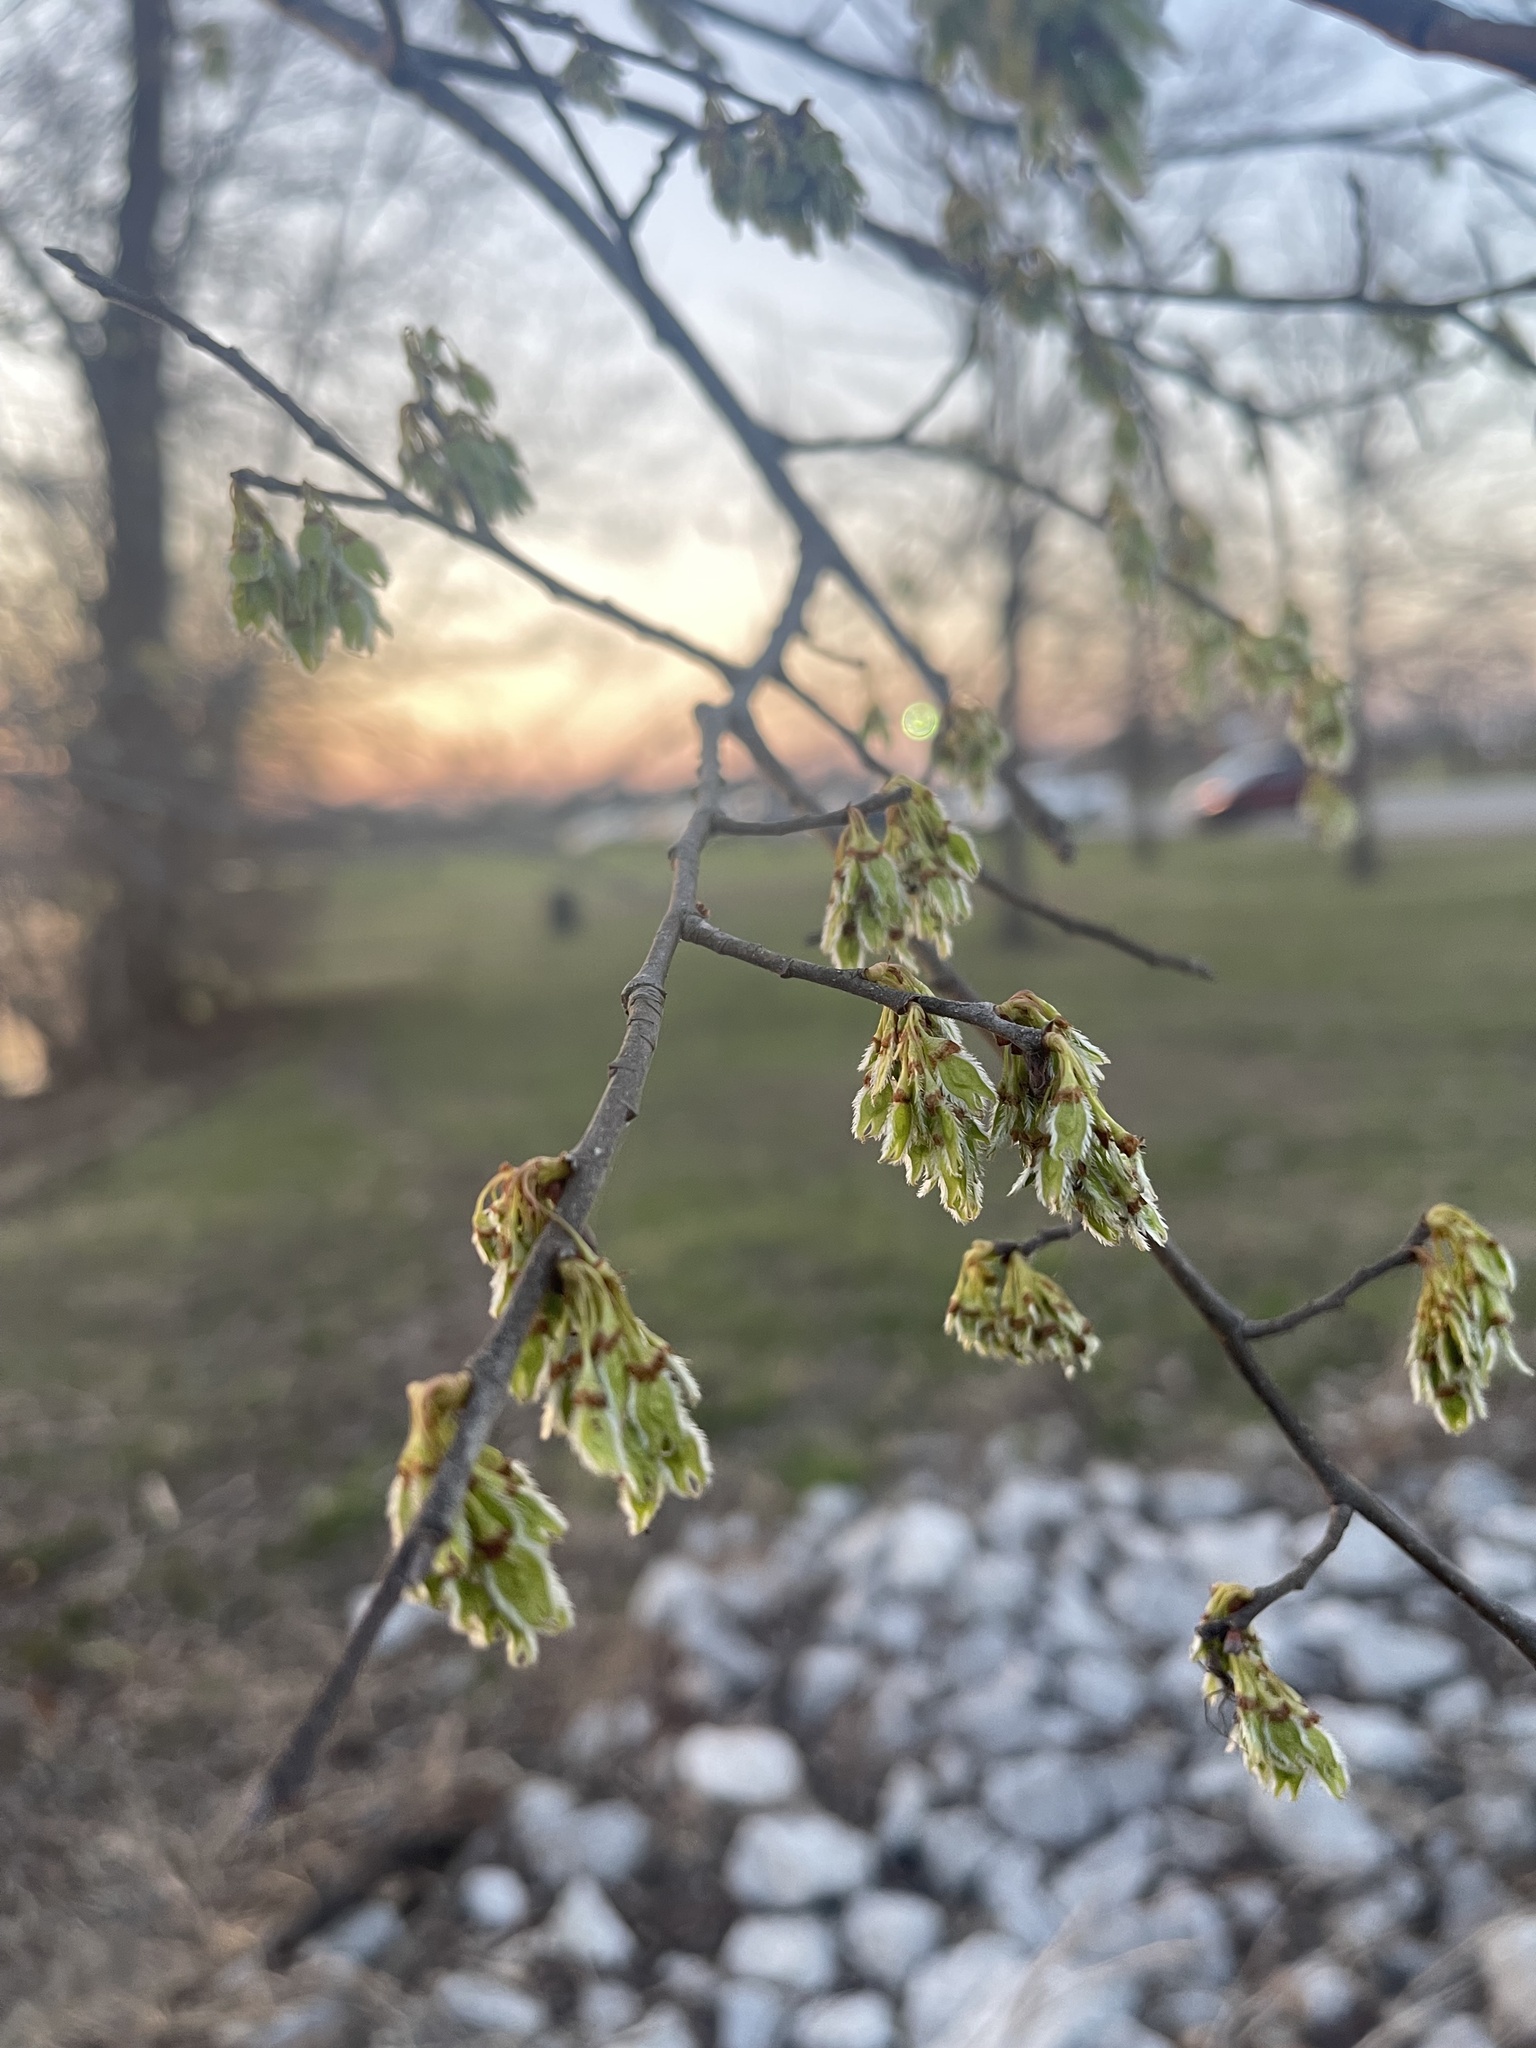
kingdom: Plantae
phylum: Tracheophyta
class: Magnoliopsida
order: Rosales
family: Ulmaceae
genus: Ulmus
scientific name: Ulmus americana
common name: American elm
